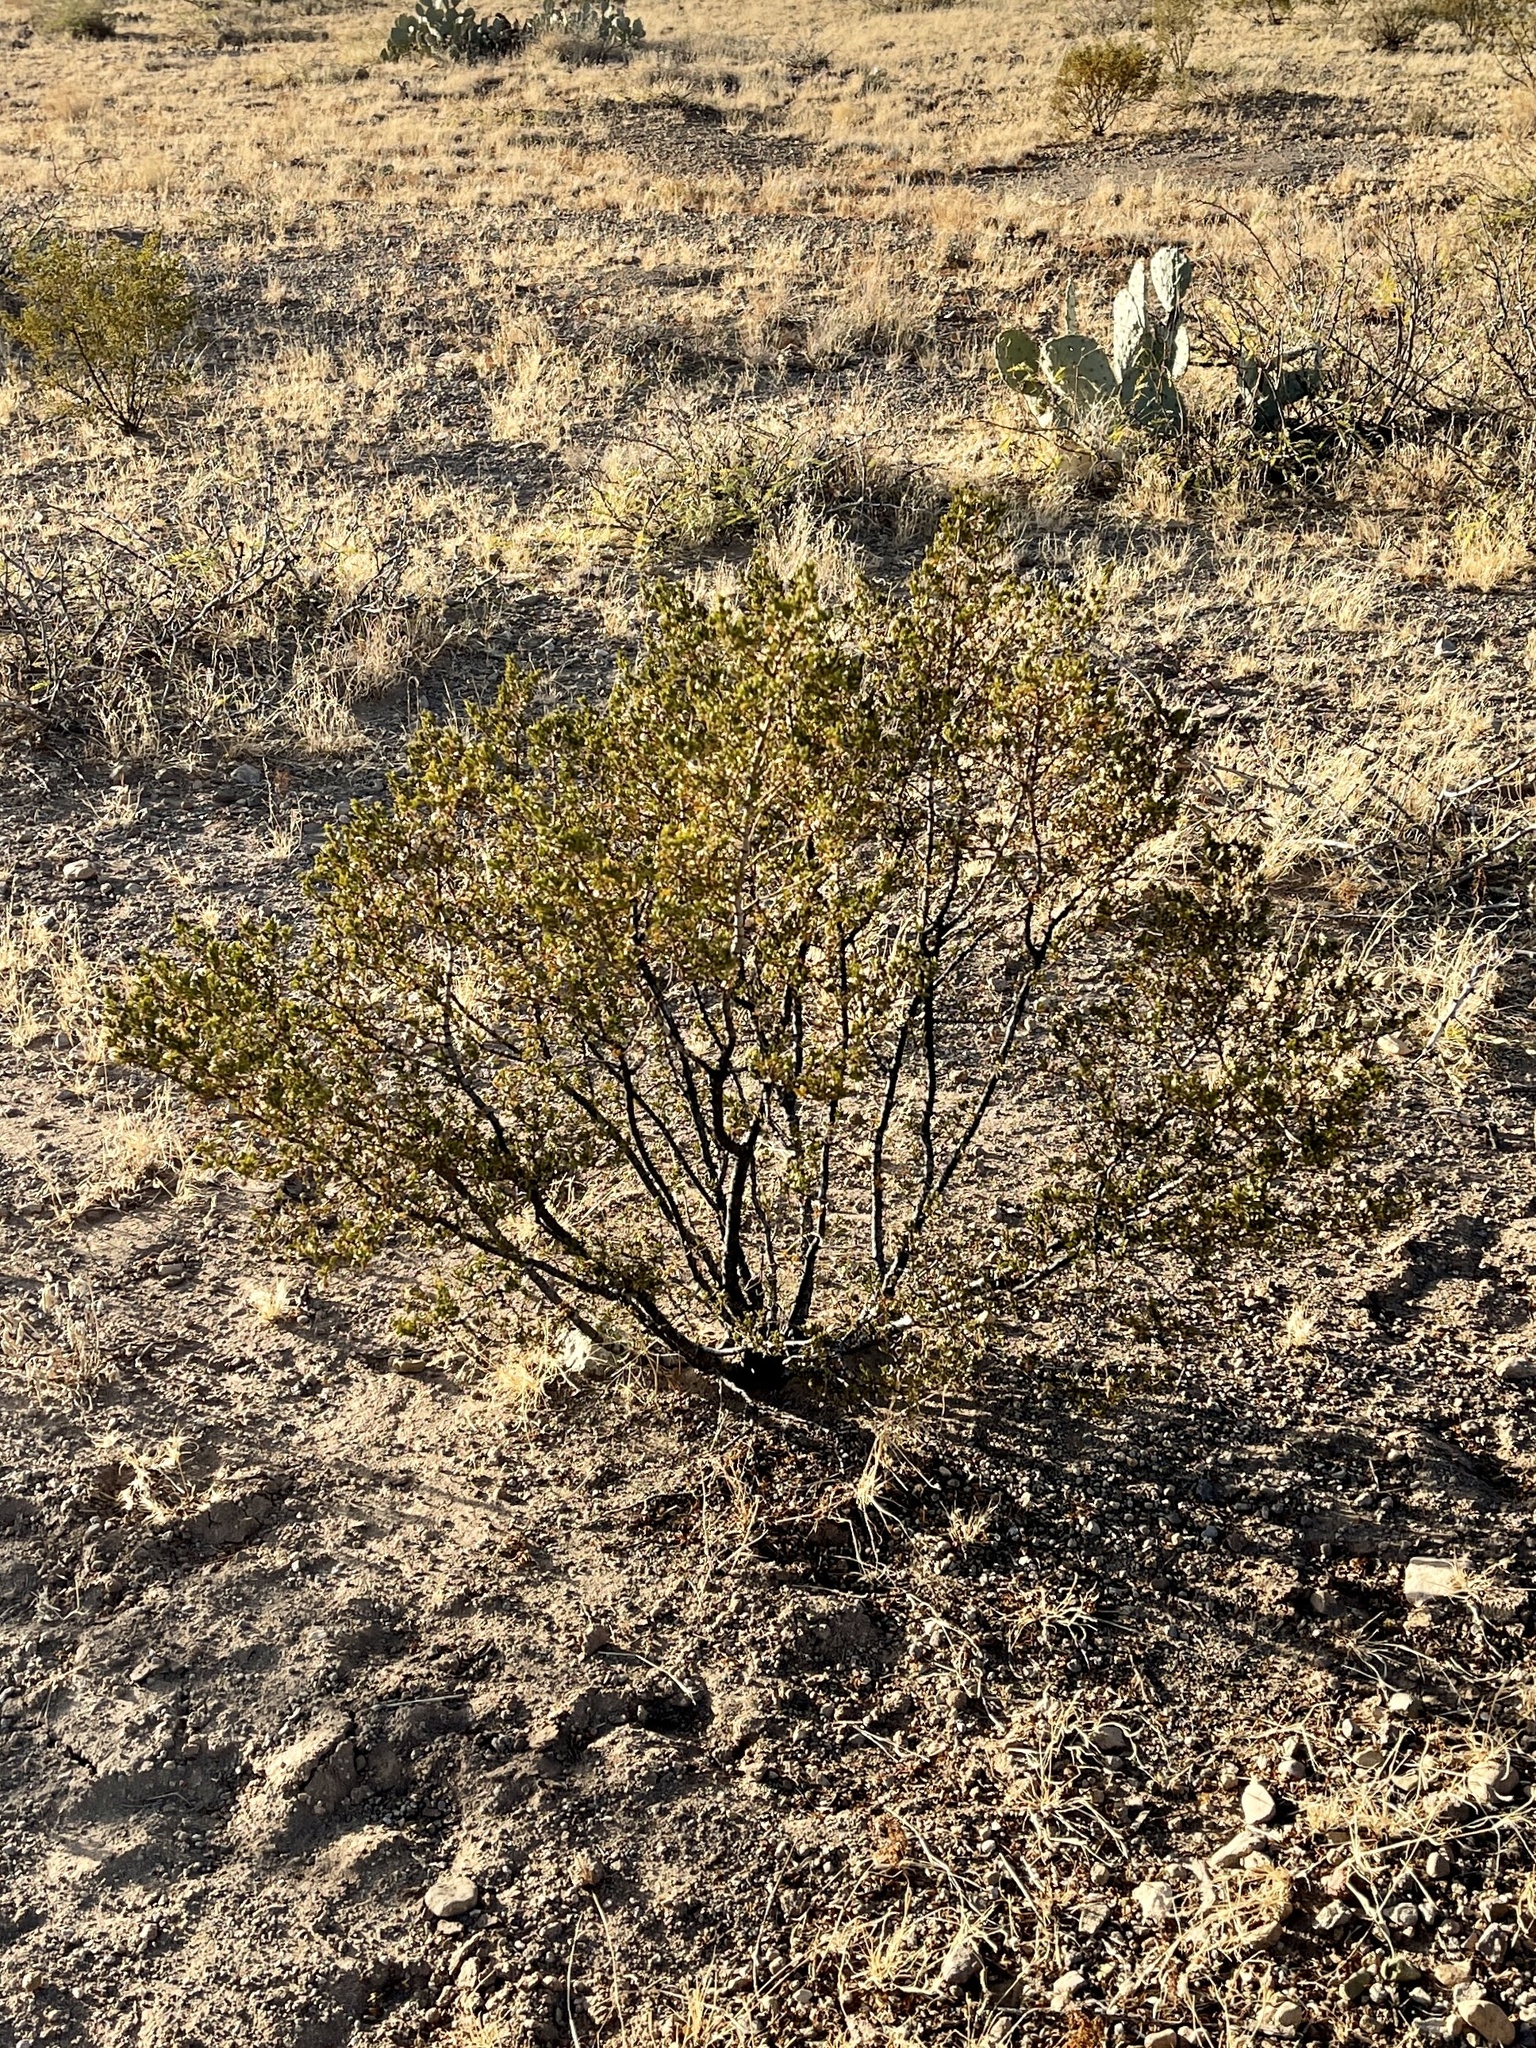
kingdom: Plantae
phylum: Tracheophyta
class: Magnoliopsida
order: Zygophyllales
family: Zygophyllaceae
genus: Larrea
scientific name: Larrea tridentata
